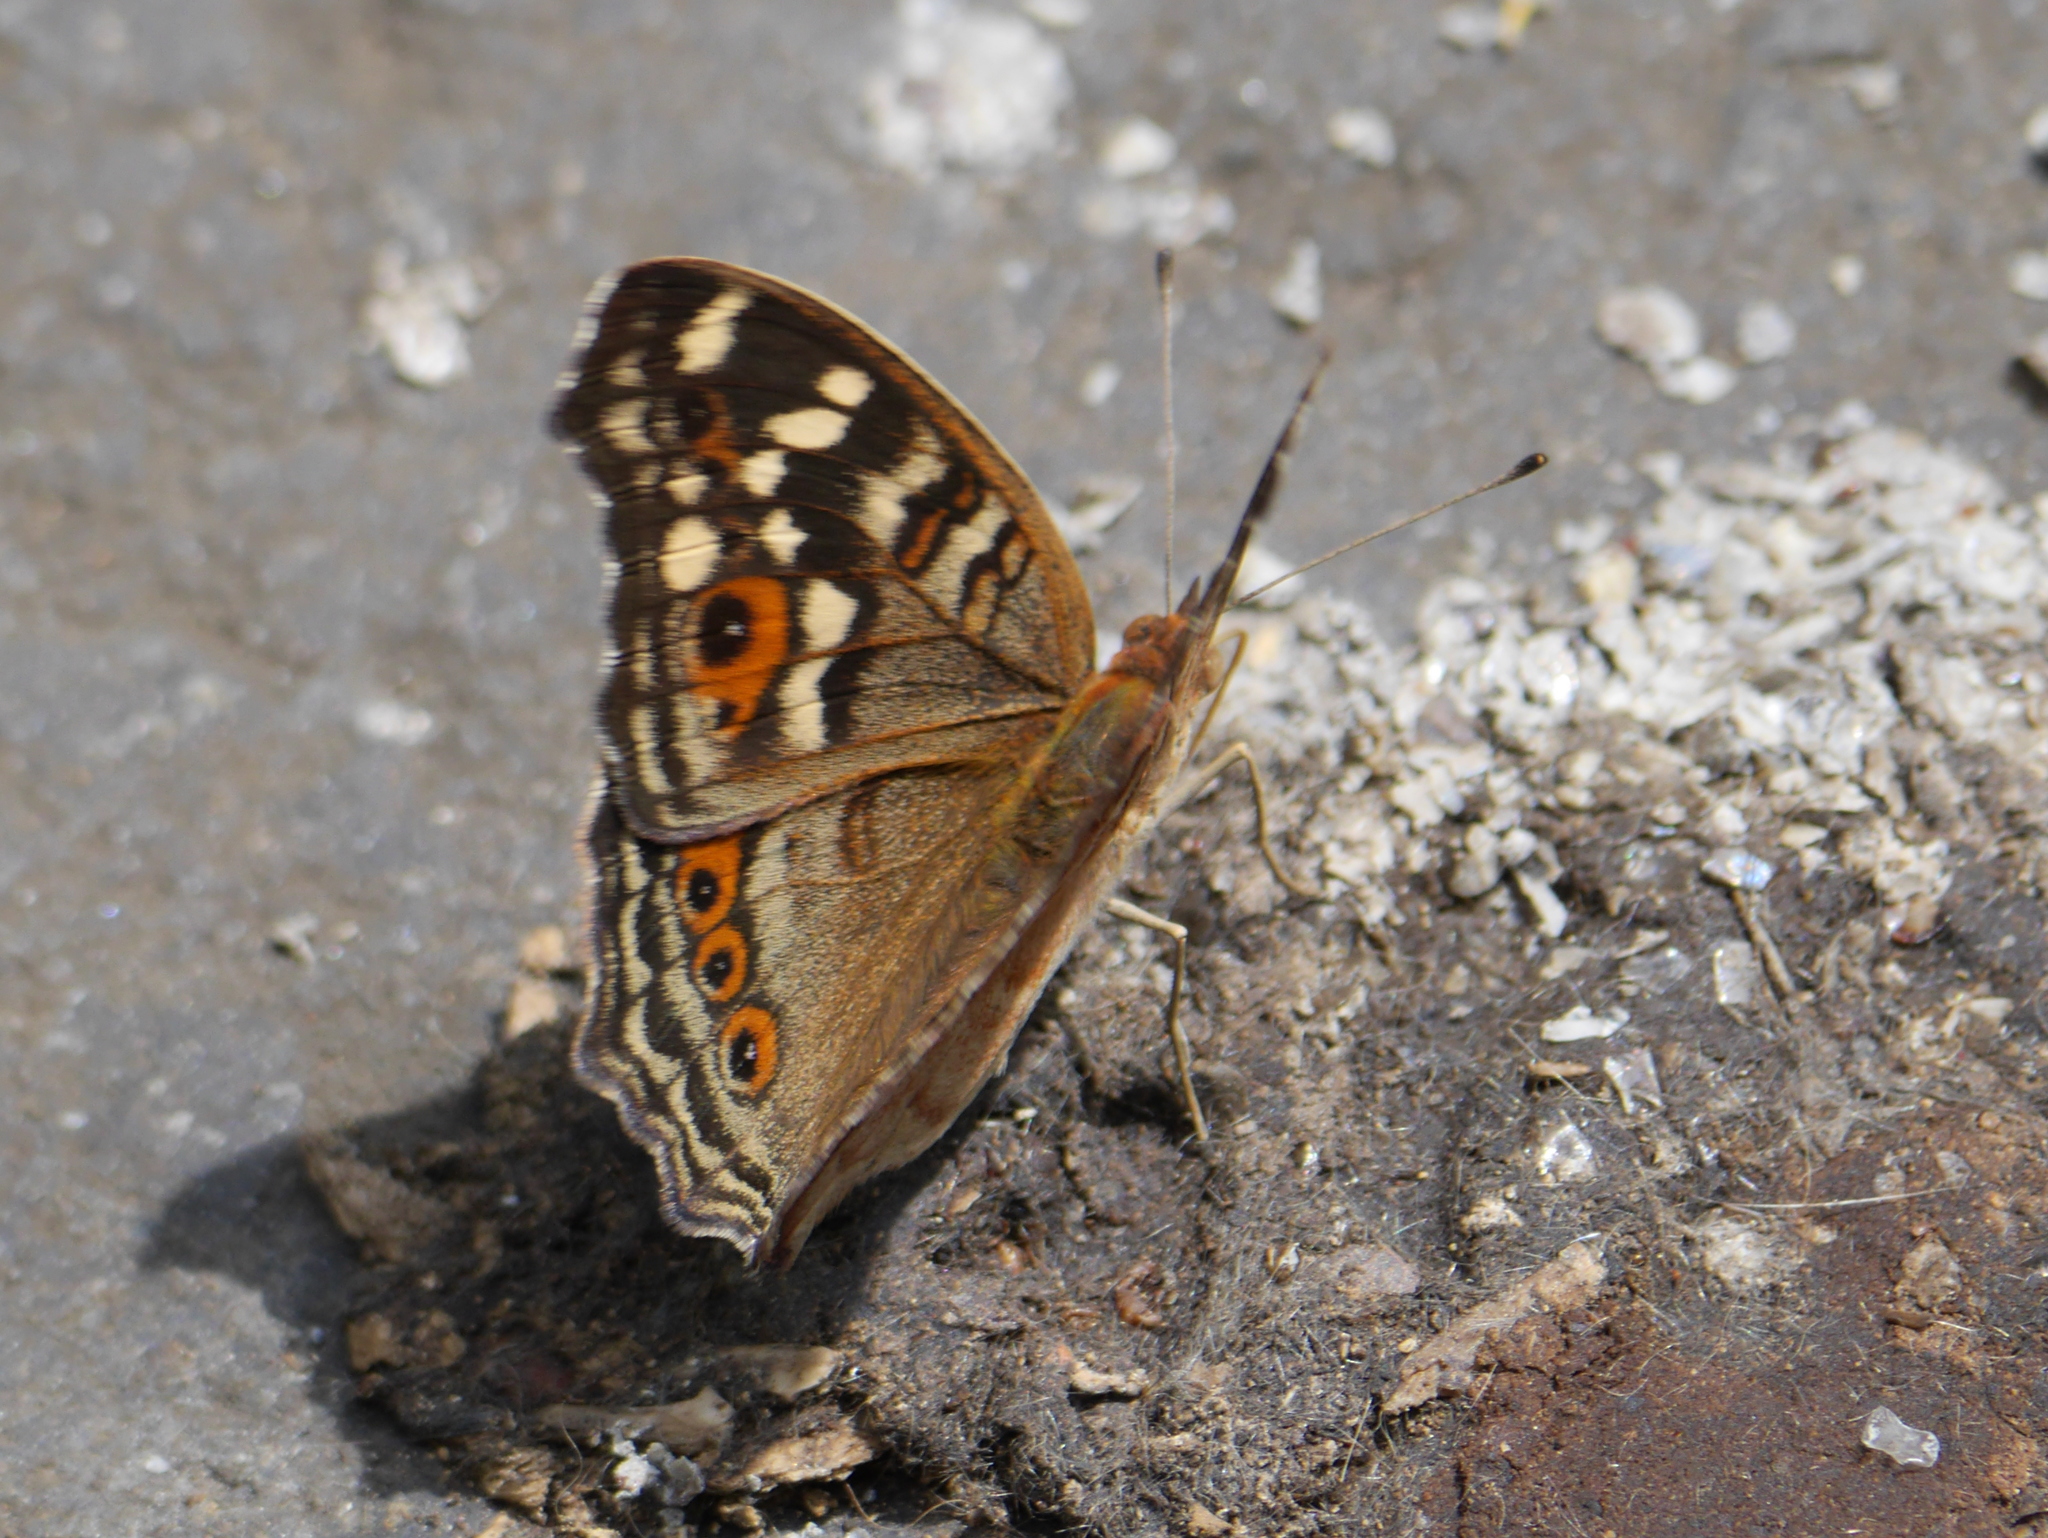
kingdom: Animalia
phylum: Arthropoda
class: Insecta
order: Lepidoptera
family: Nymphalidae
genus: Junonia
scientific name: Junonia erigone
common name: Northern argus
